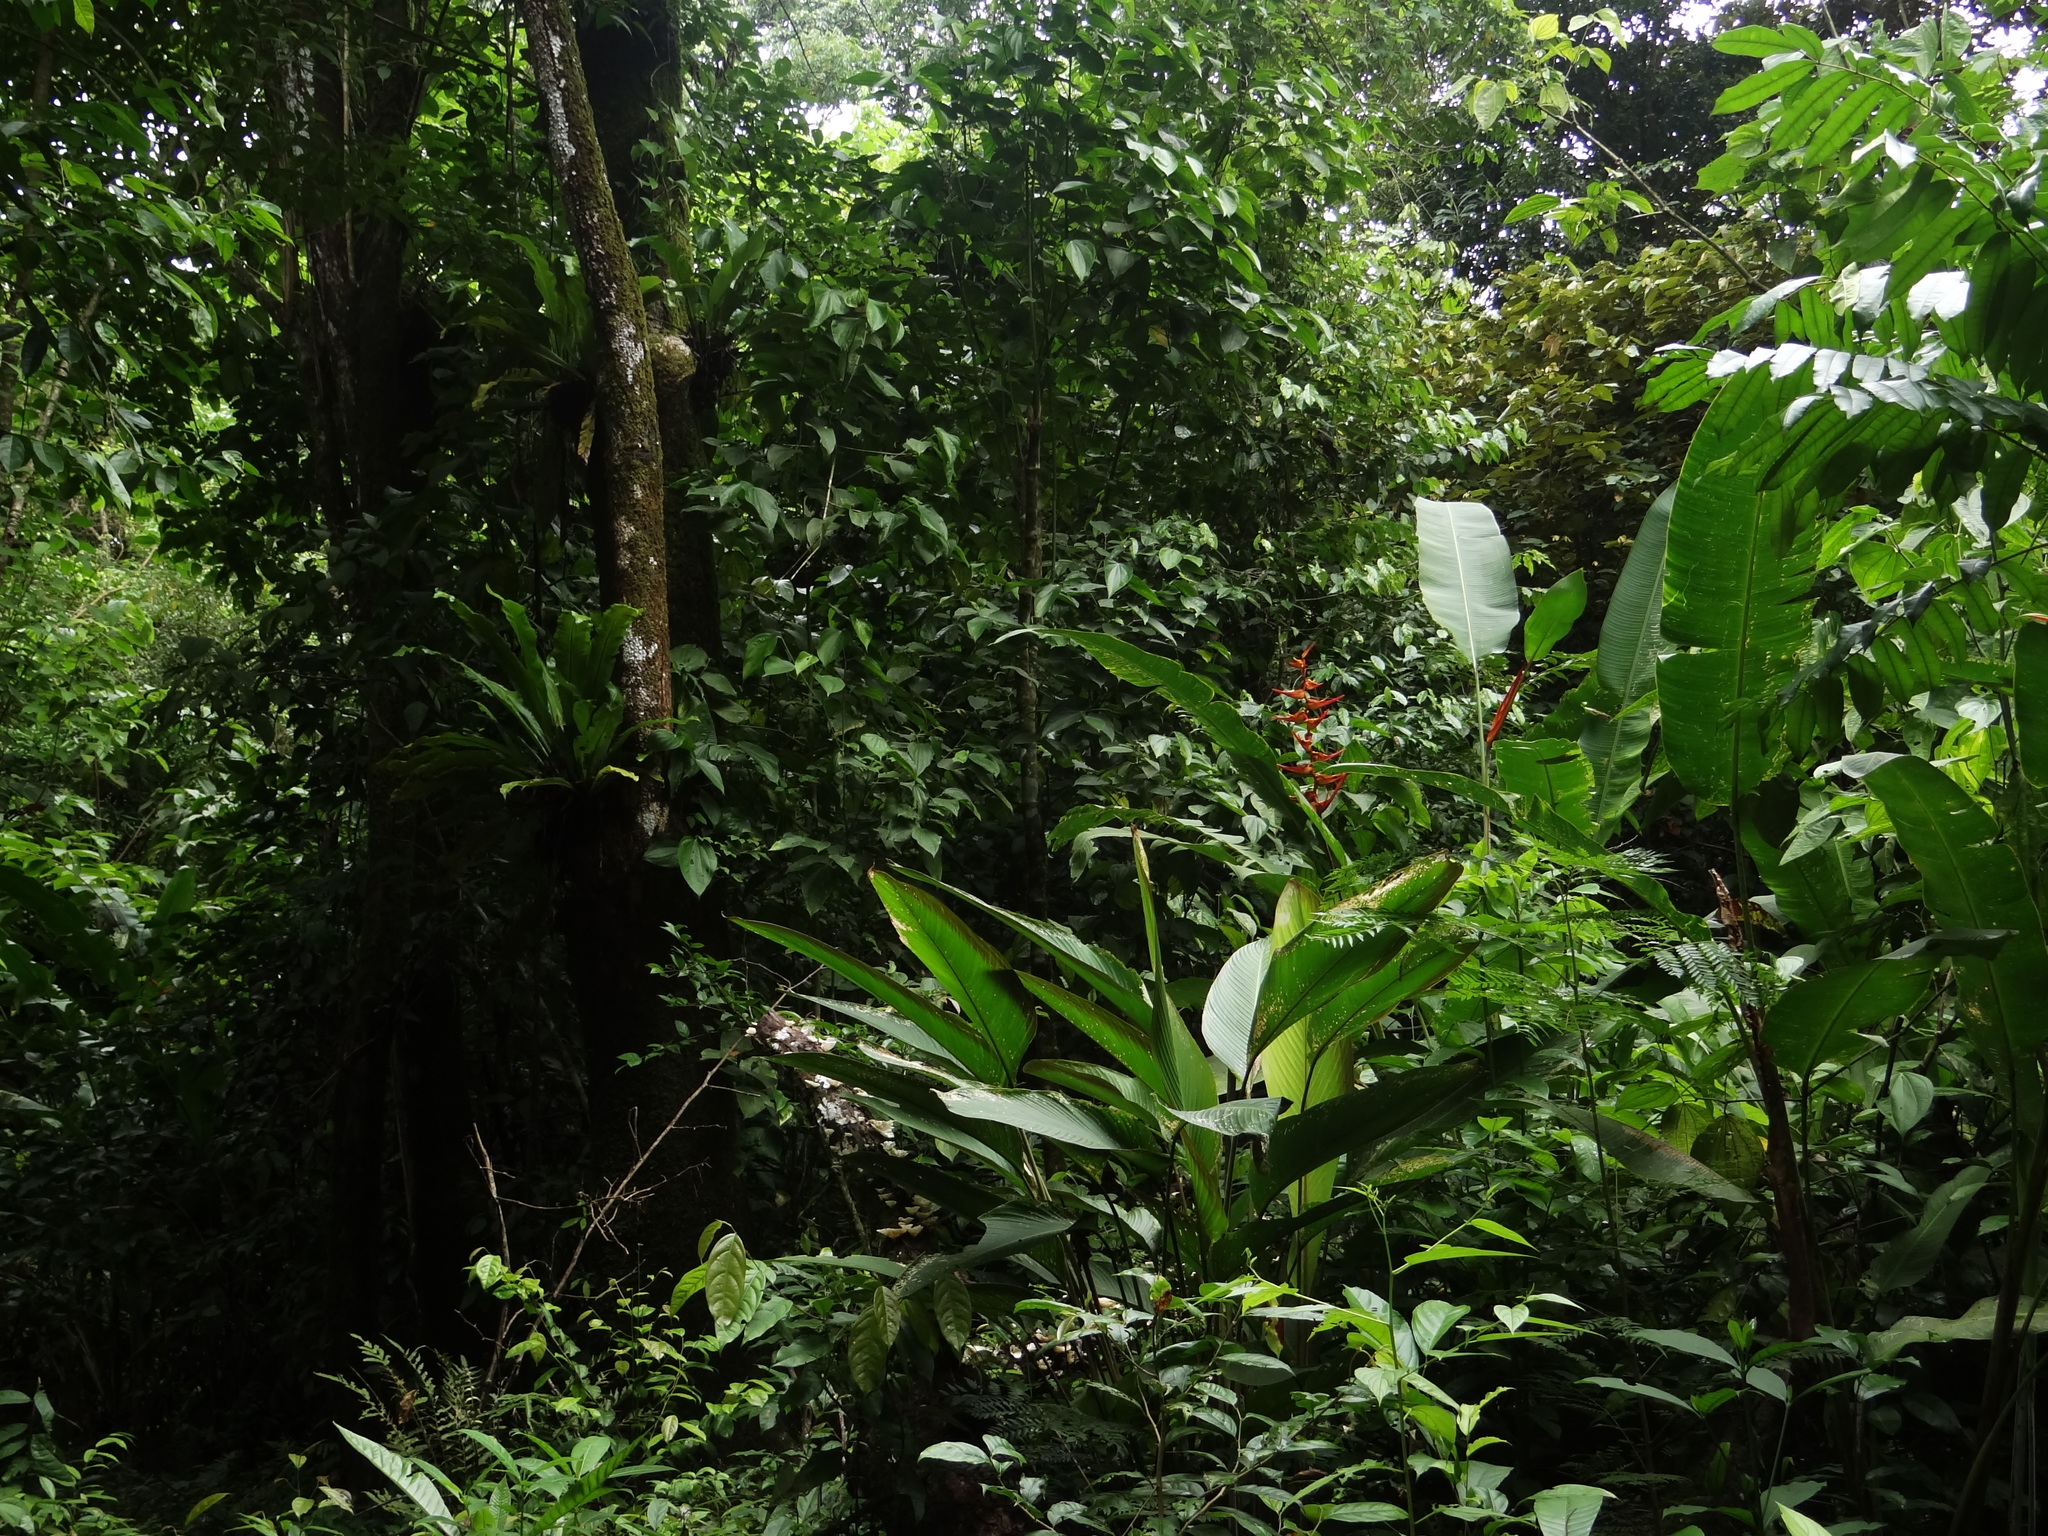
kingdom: Plantae
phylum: Tracheophyta
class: Liliopsida
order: Zingiberales
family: Heliconiaceae
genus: Heliconia
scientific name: Heliconia latispatha
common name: Expanded lobsterclaw
